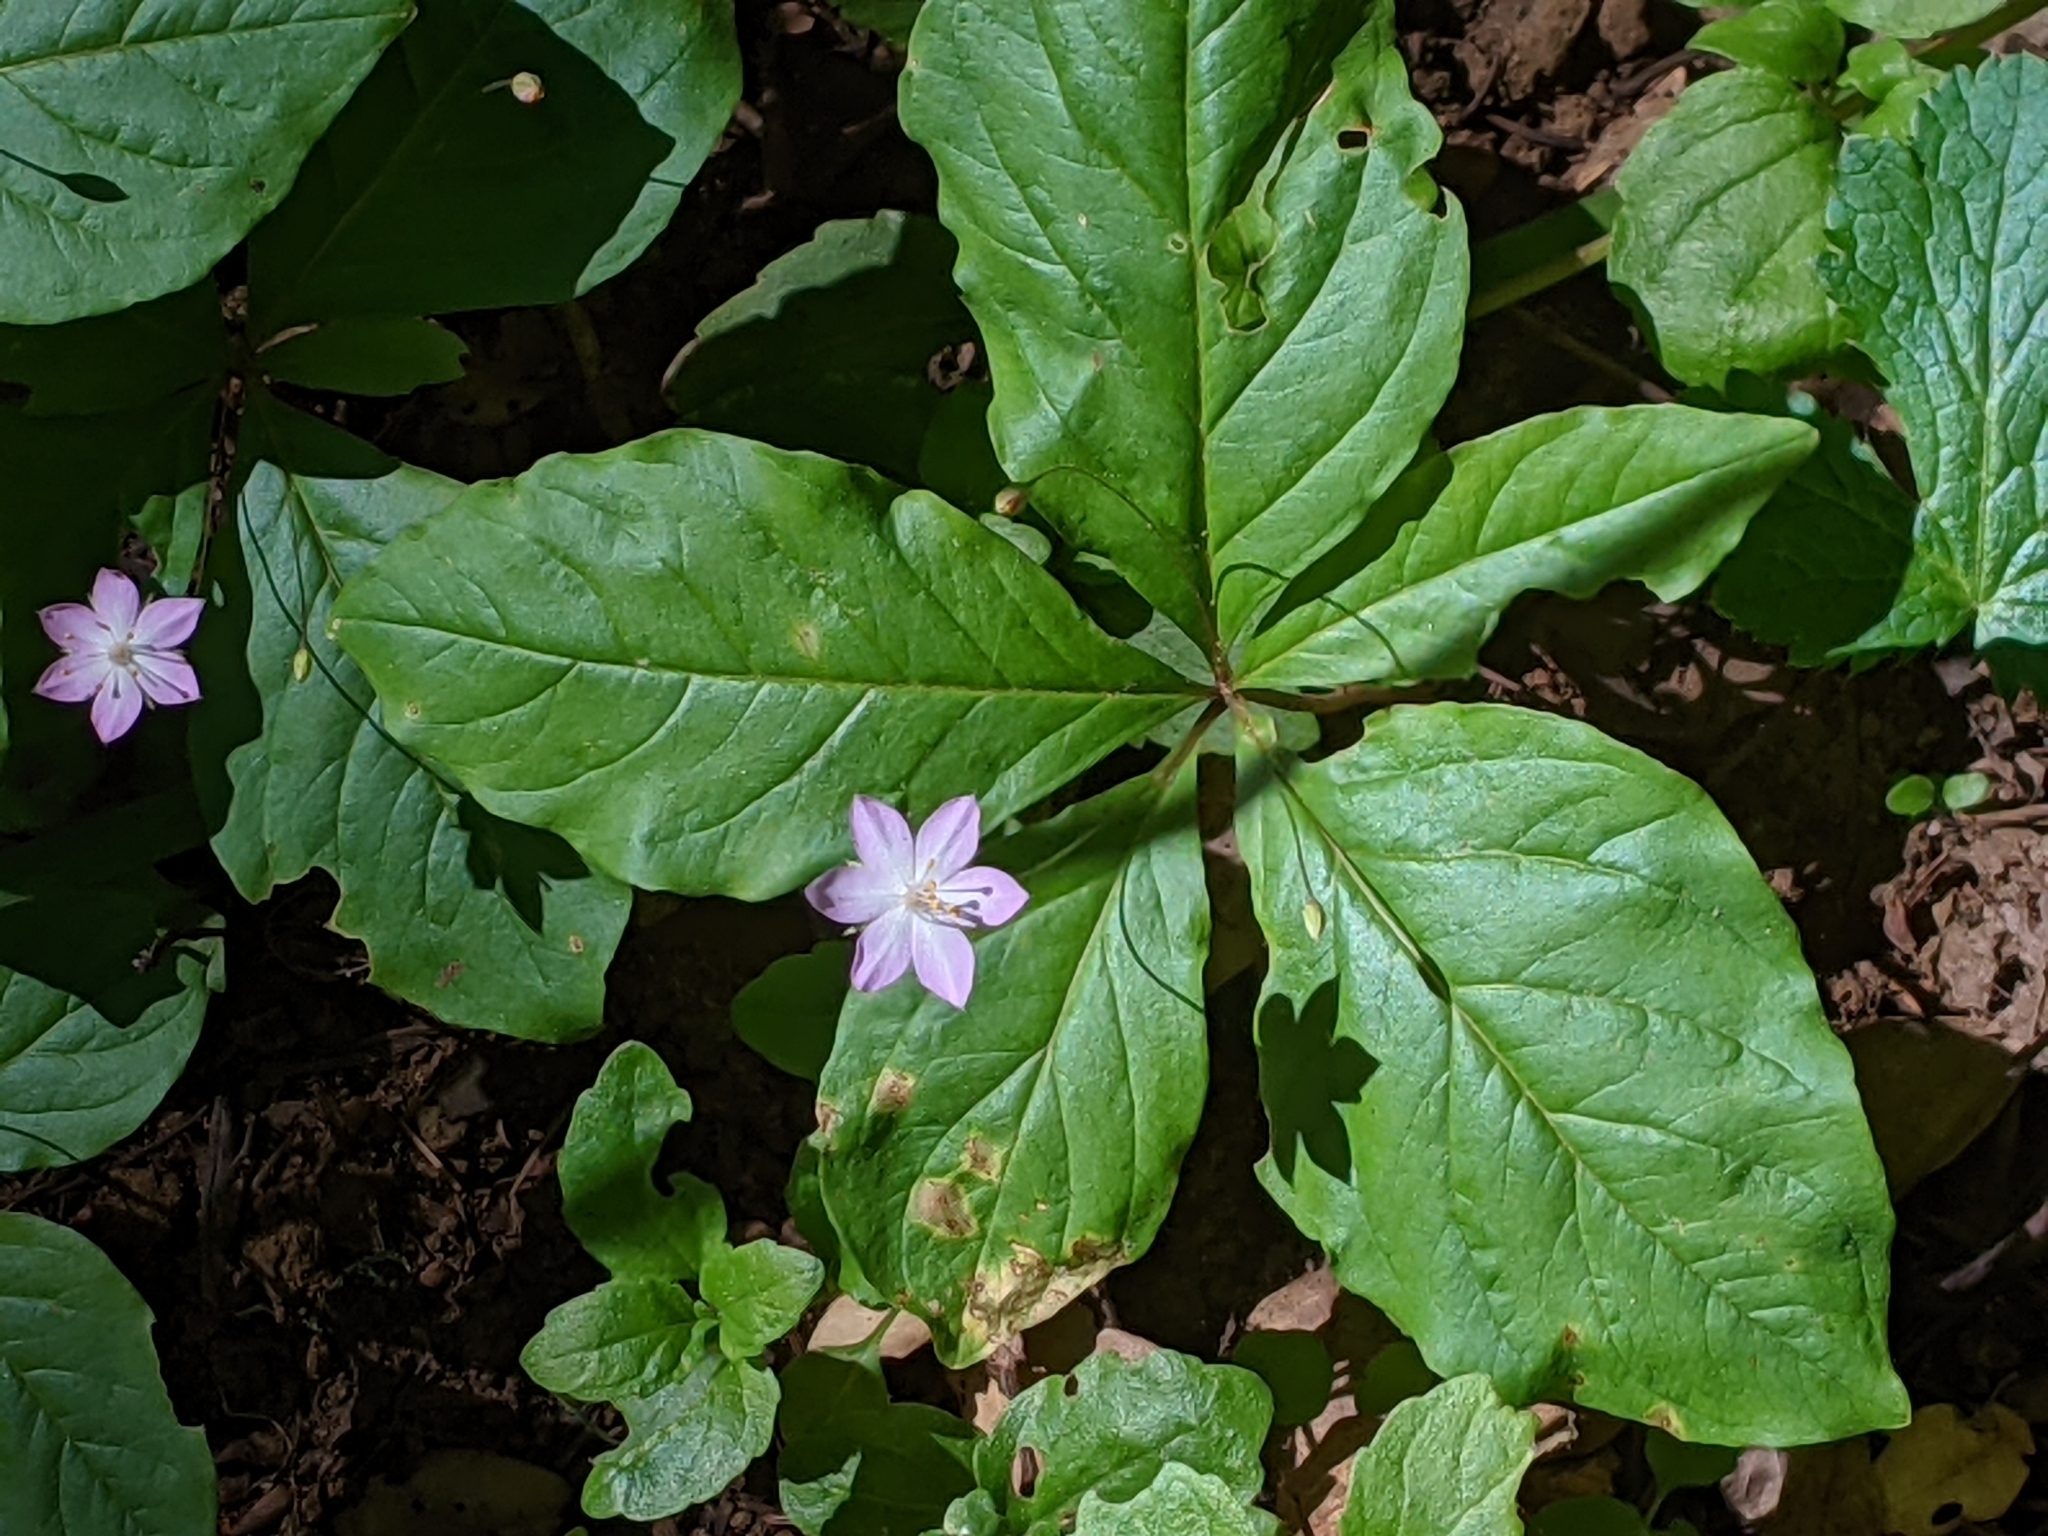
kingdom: Plantae
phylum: Tracheophyta
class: Magnoliopsida
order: Ericales
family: Primulaceae
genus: Lysimachia
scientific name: Lysimachia latifolia
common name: Pacific starflower
